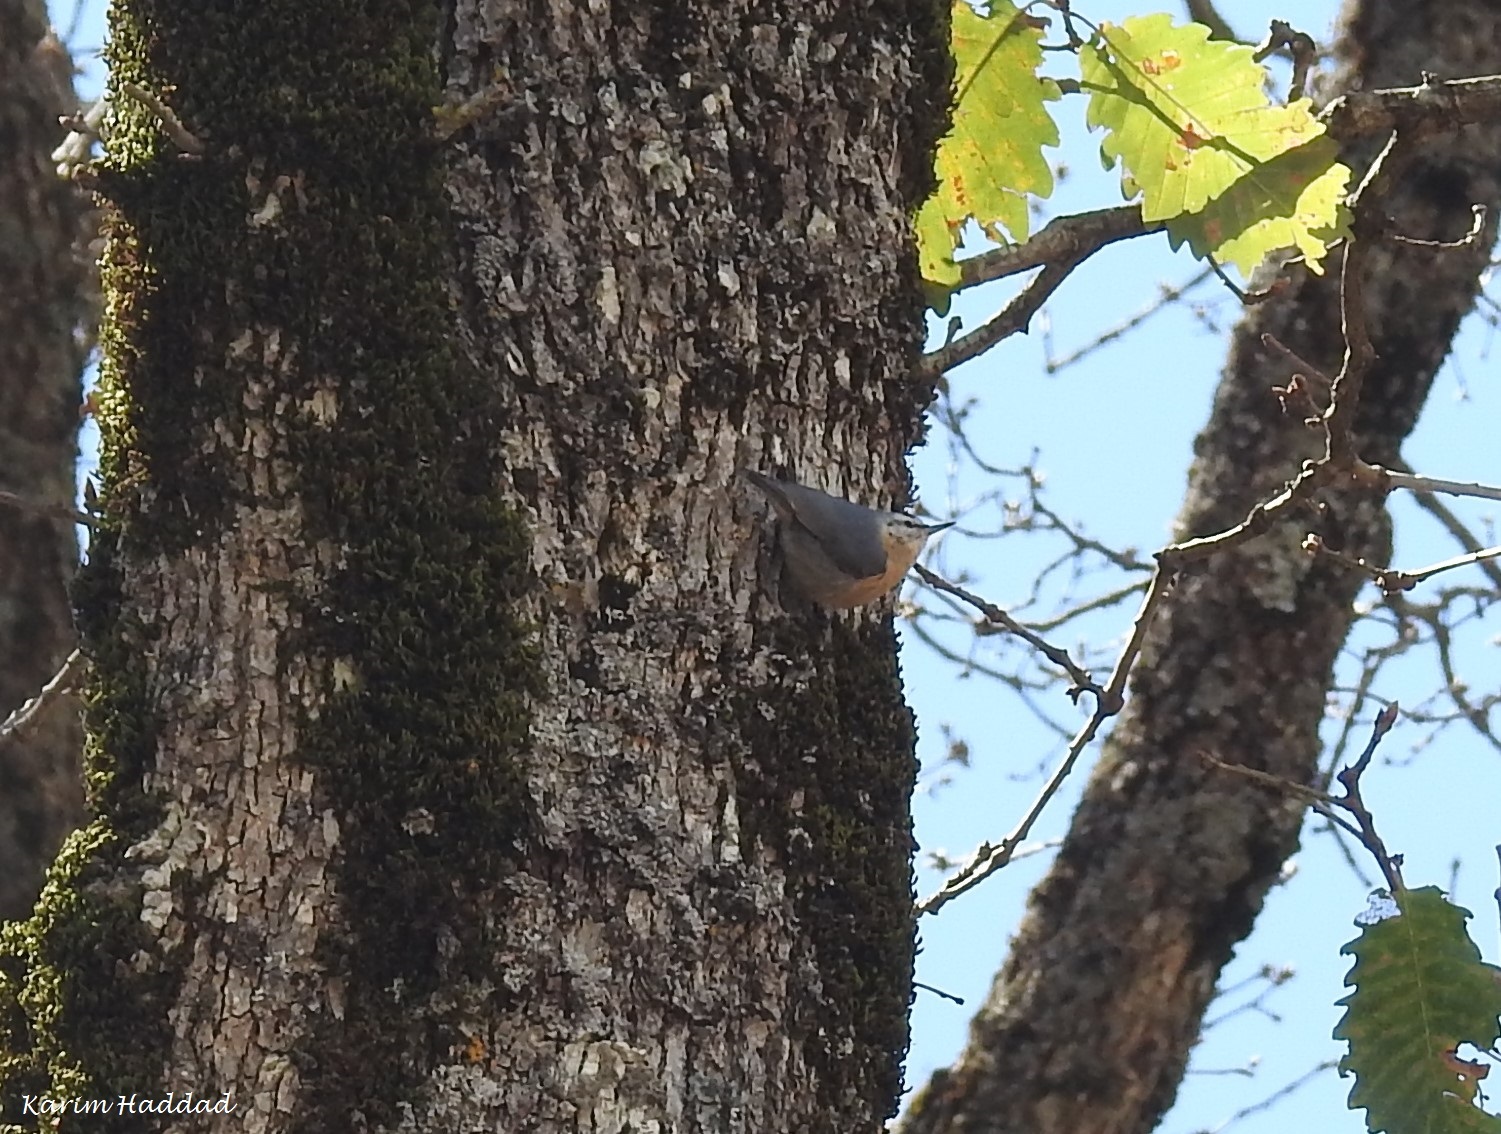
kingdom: Animalia
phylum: Chordata
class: Aves
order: Passeriformes
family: Sittidae
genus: Sitta
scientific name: Sitta ledanti
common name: Algerian nuthatch
